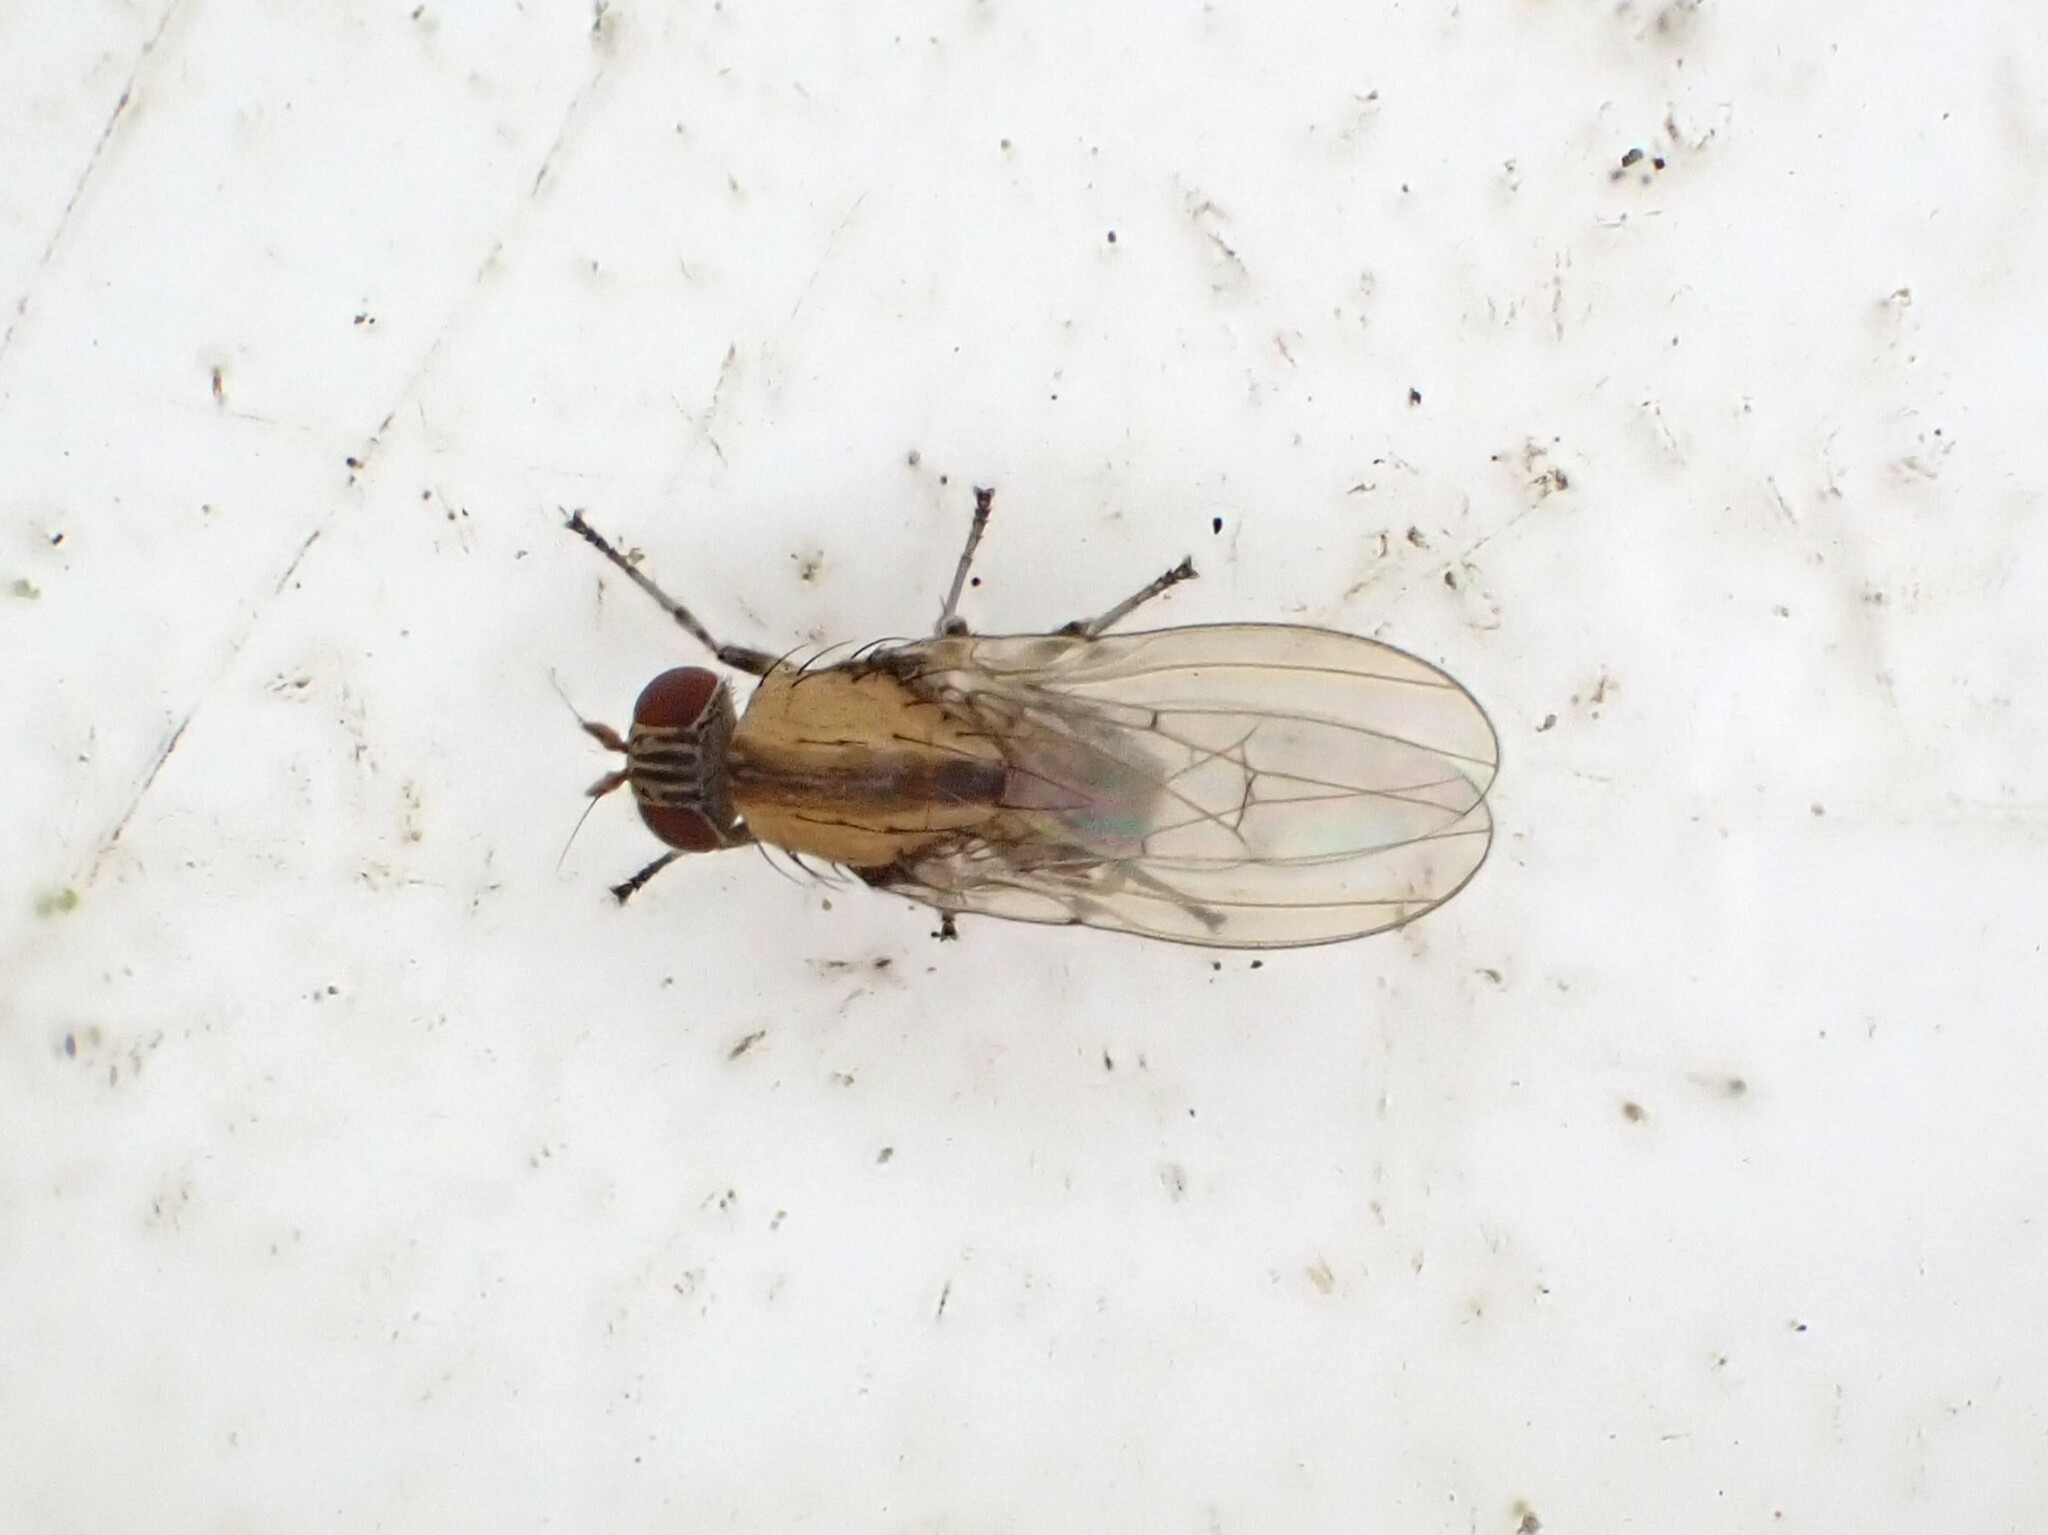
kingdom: Animalia
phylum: Arthropoda
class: Insecta
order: Diptera
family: Lauxaniidae
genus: Sapromyza
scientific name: Sapromyza neozelandica
